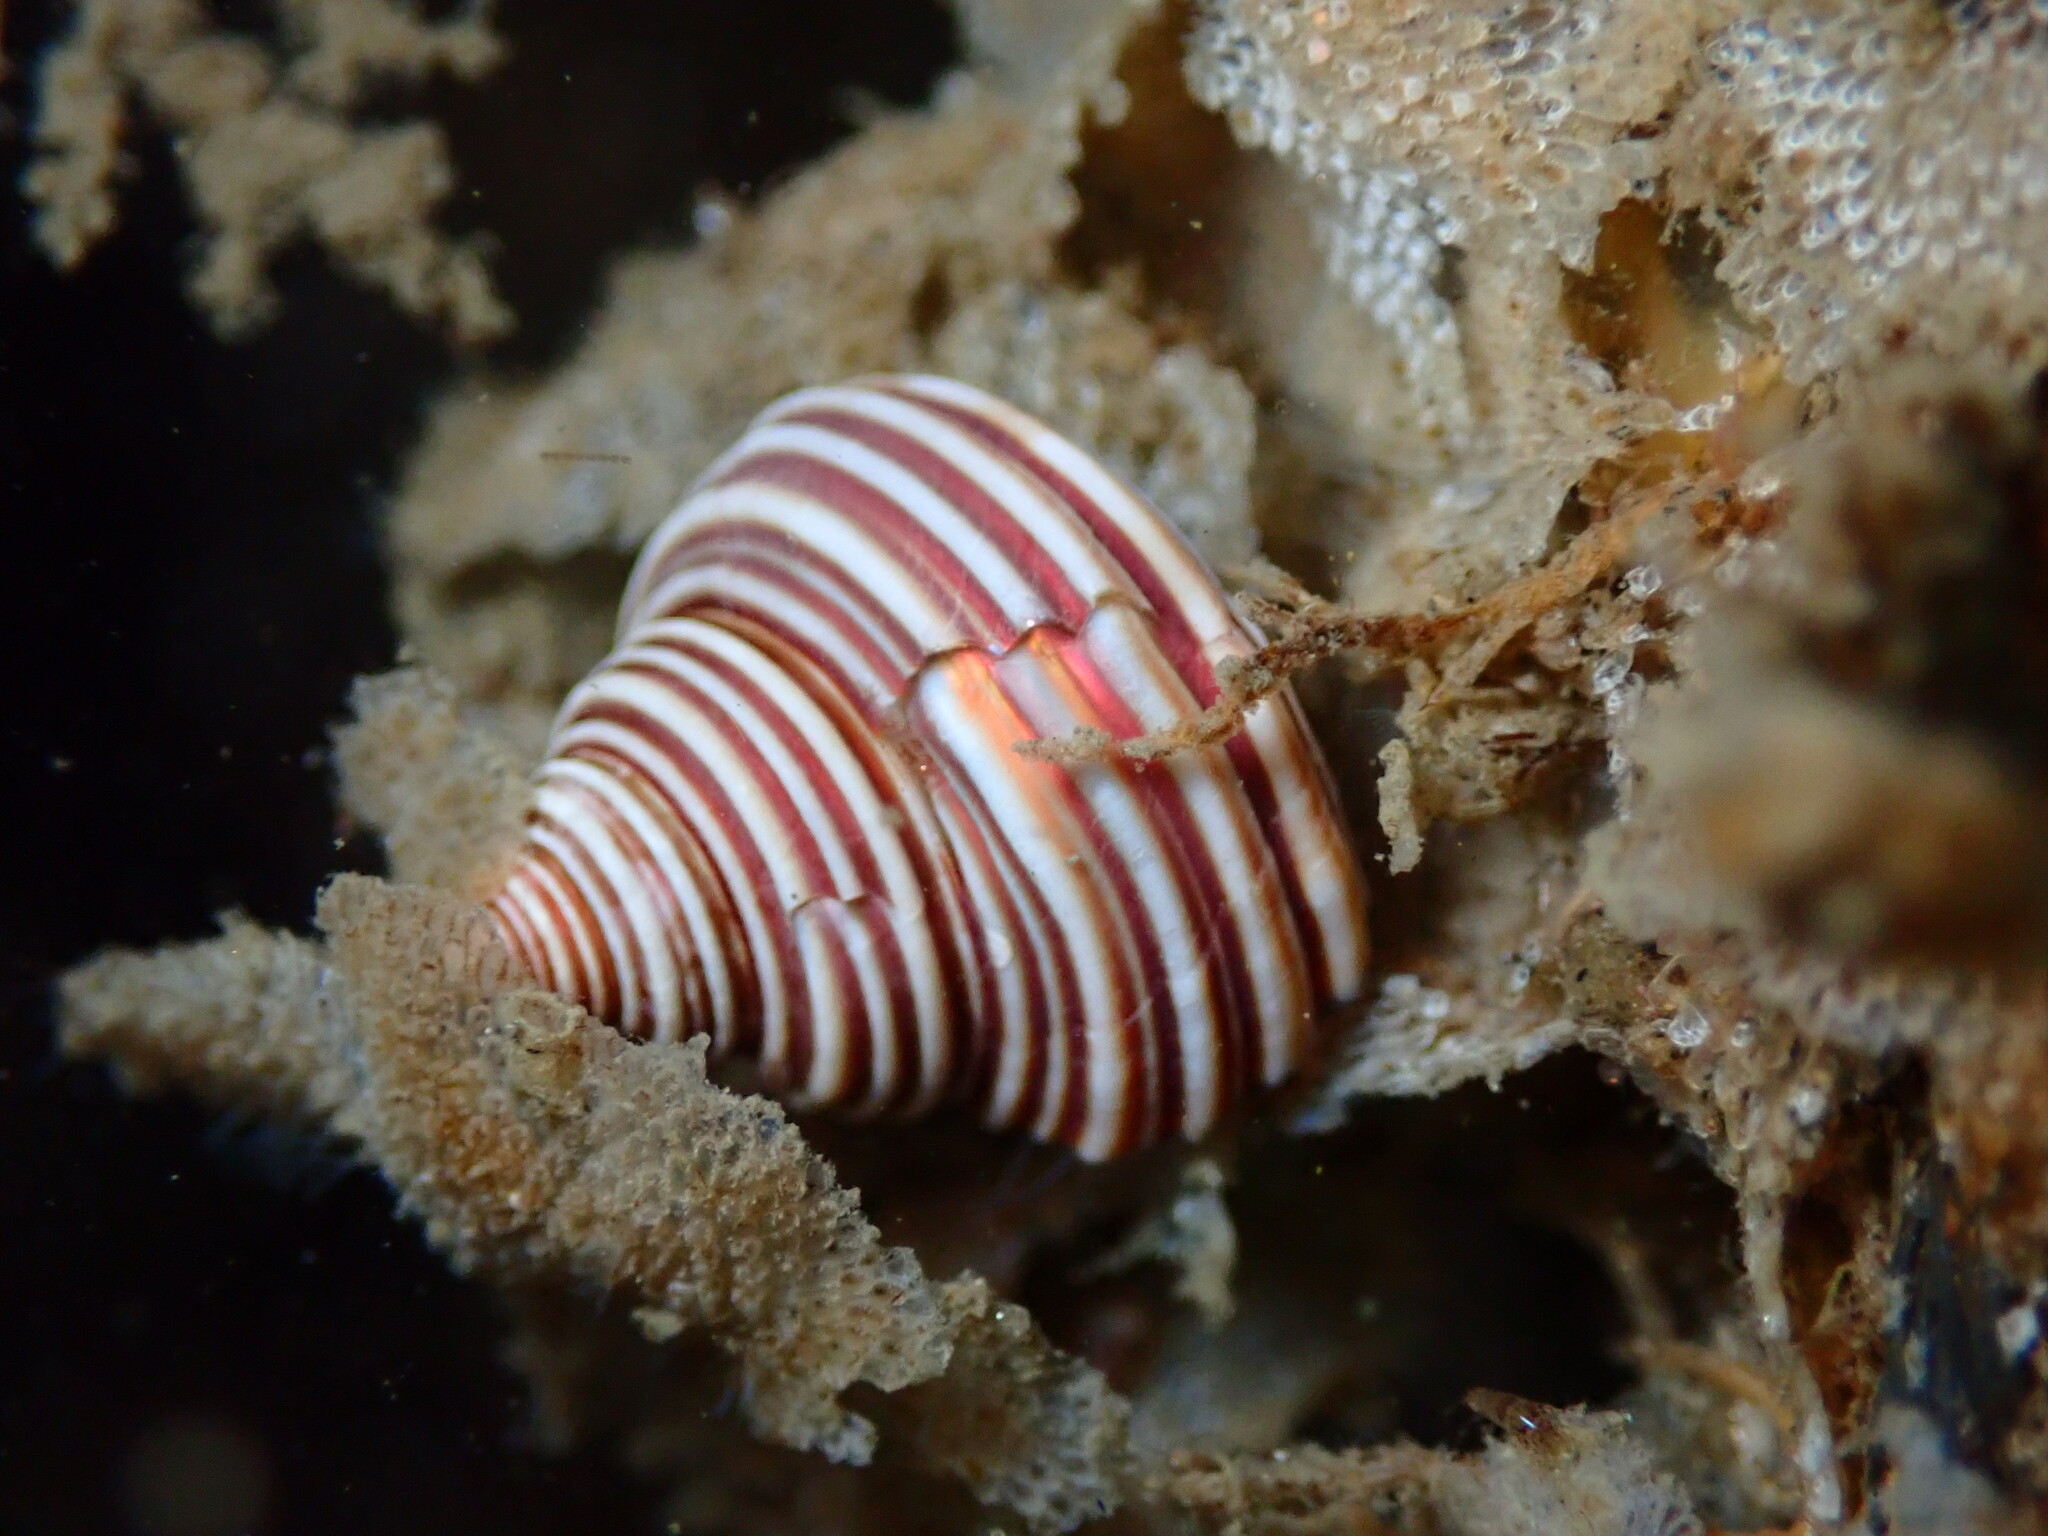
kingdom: Animalia
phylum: Mollusca
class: Gastropoda
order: Trochida
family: Calliostomatidae
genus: Calliostoma
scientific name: Calliostoma ligatum
